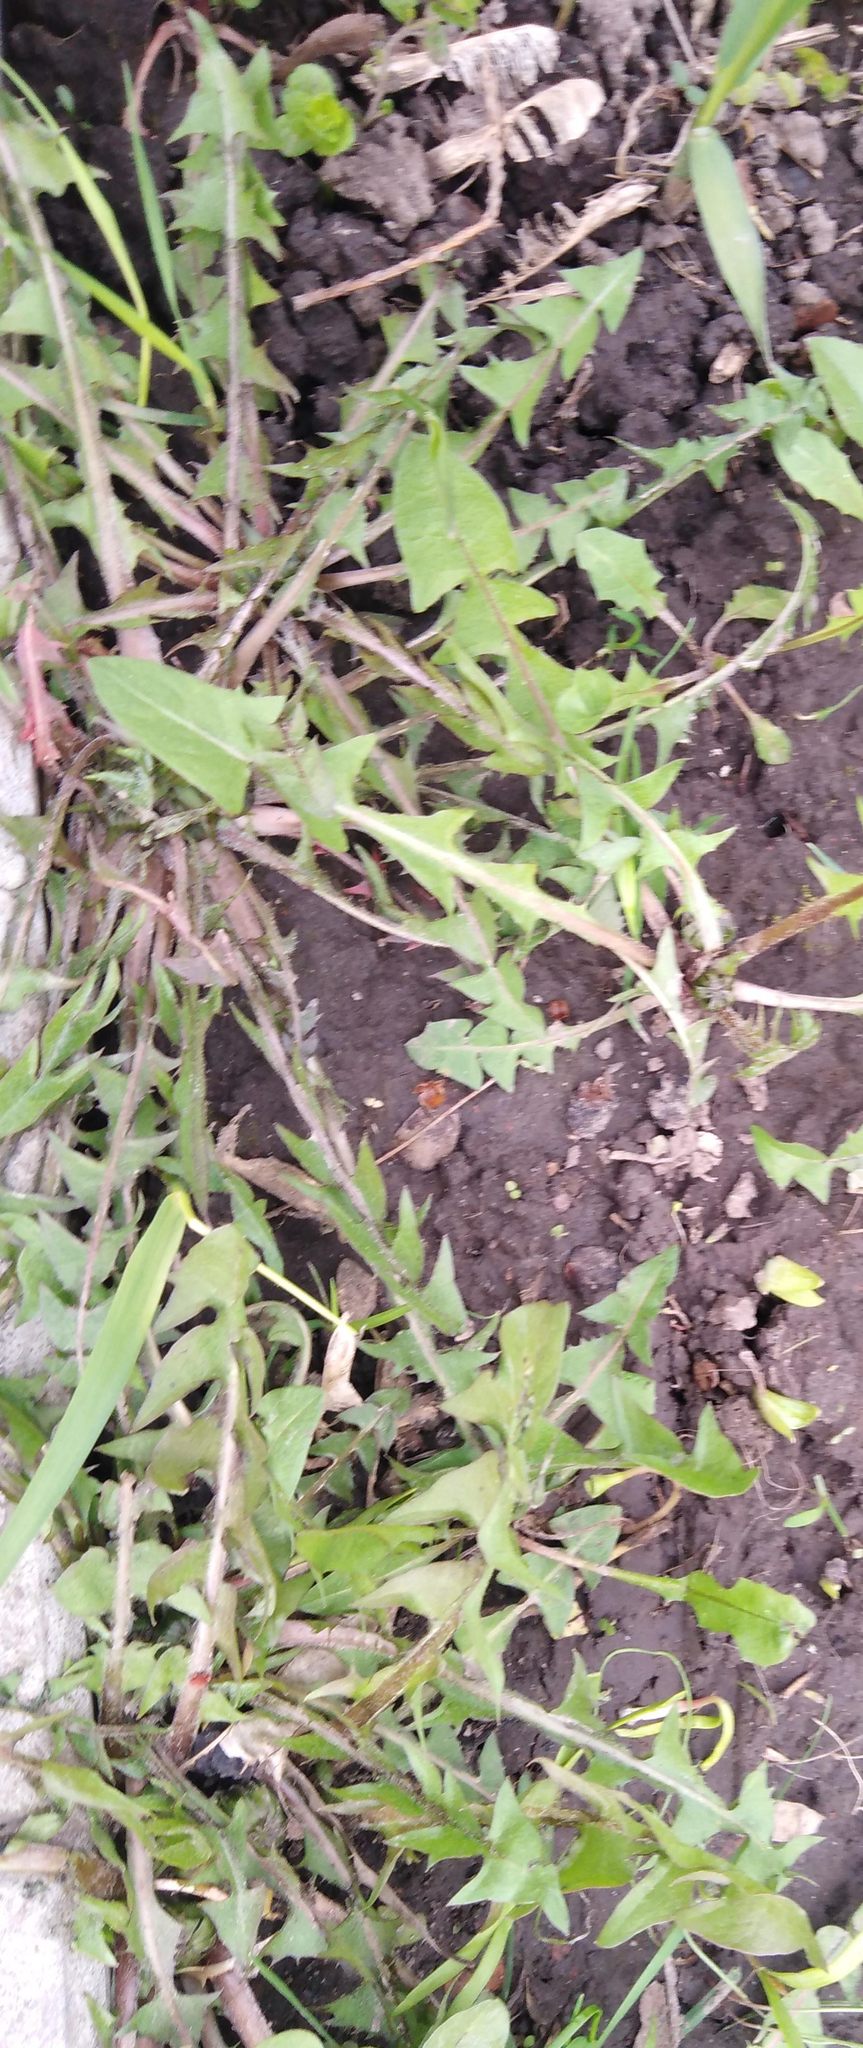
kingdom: Plantae
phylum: Tracheophyta
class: Magnoliopsida
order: Asterales
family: Asteraceae
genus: Taraxacum
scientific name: Taraxacum officinale
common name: Common dandelion
